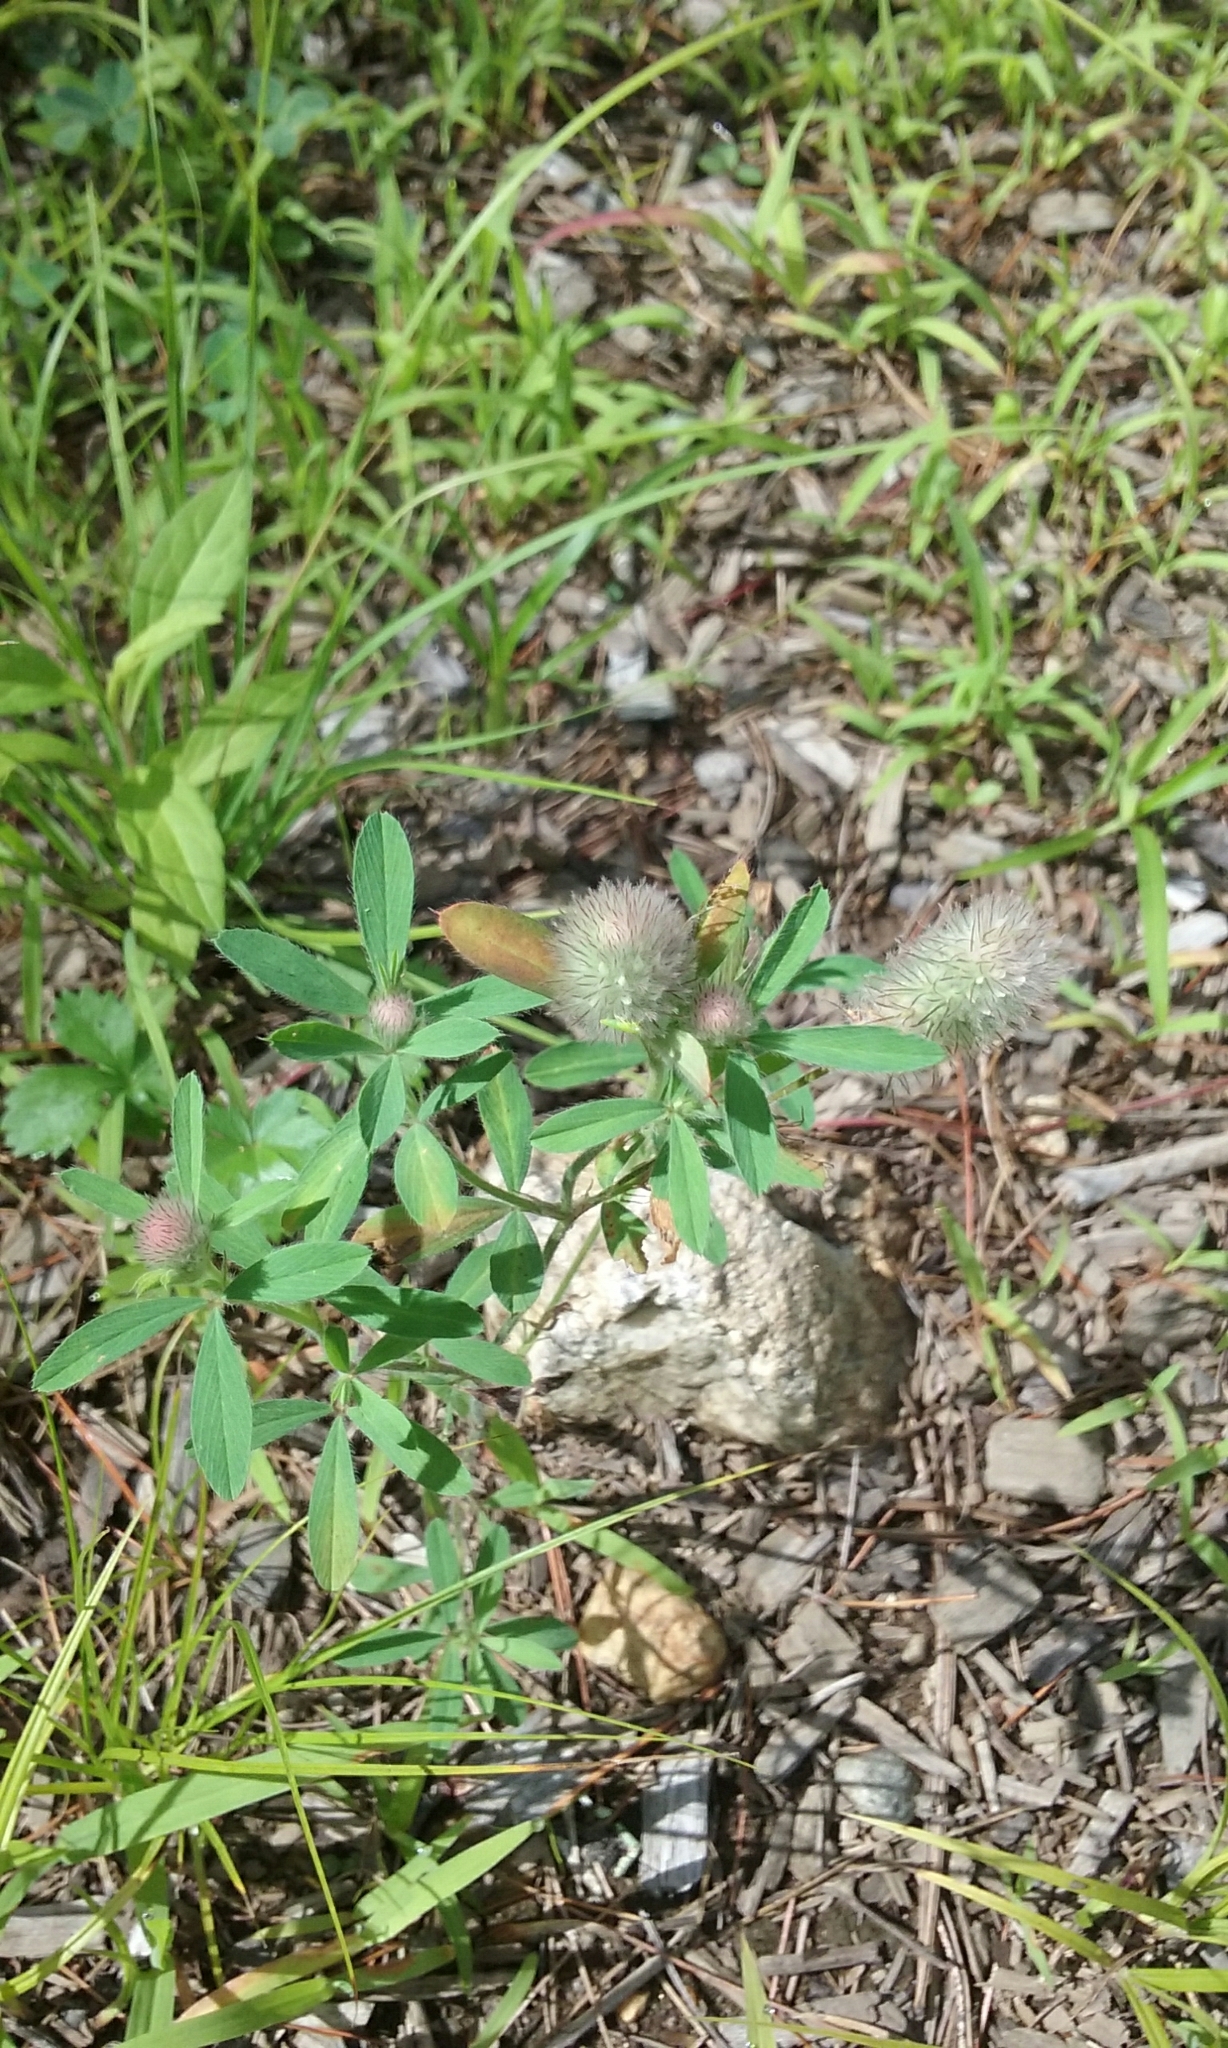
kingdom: Plantae
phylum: Tracheophyta
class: Magnoliopsida
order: Fabales
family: Fabaceae
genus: Trifolium
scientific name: Trifolium arvense
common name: Hare's-foot clover
